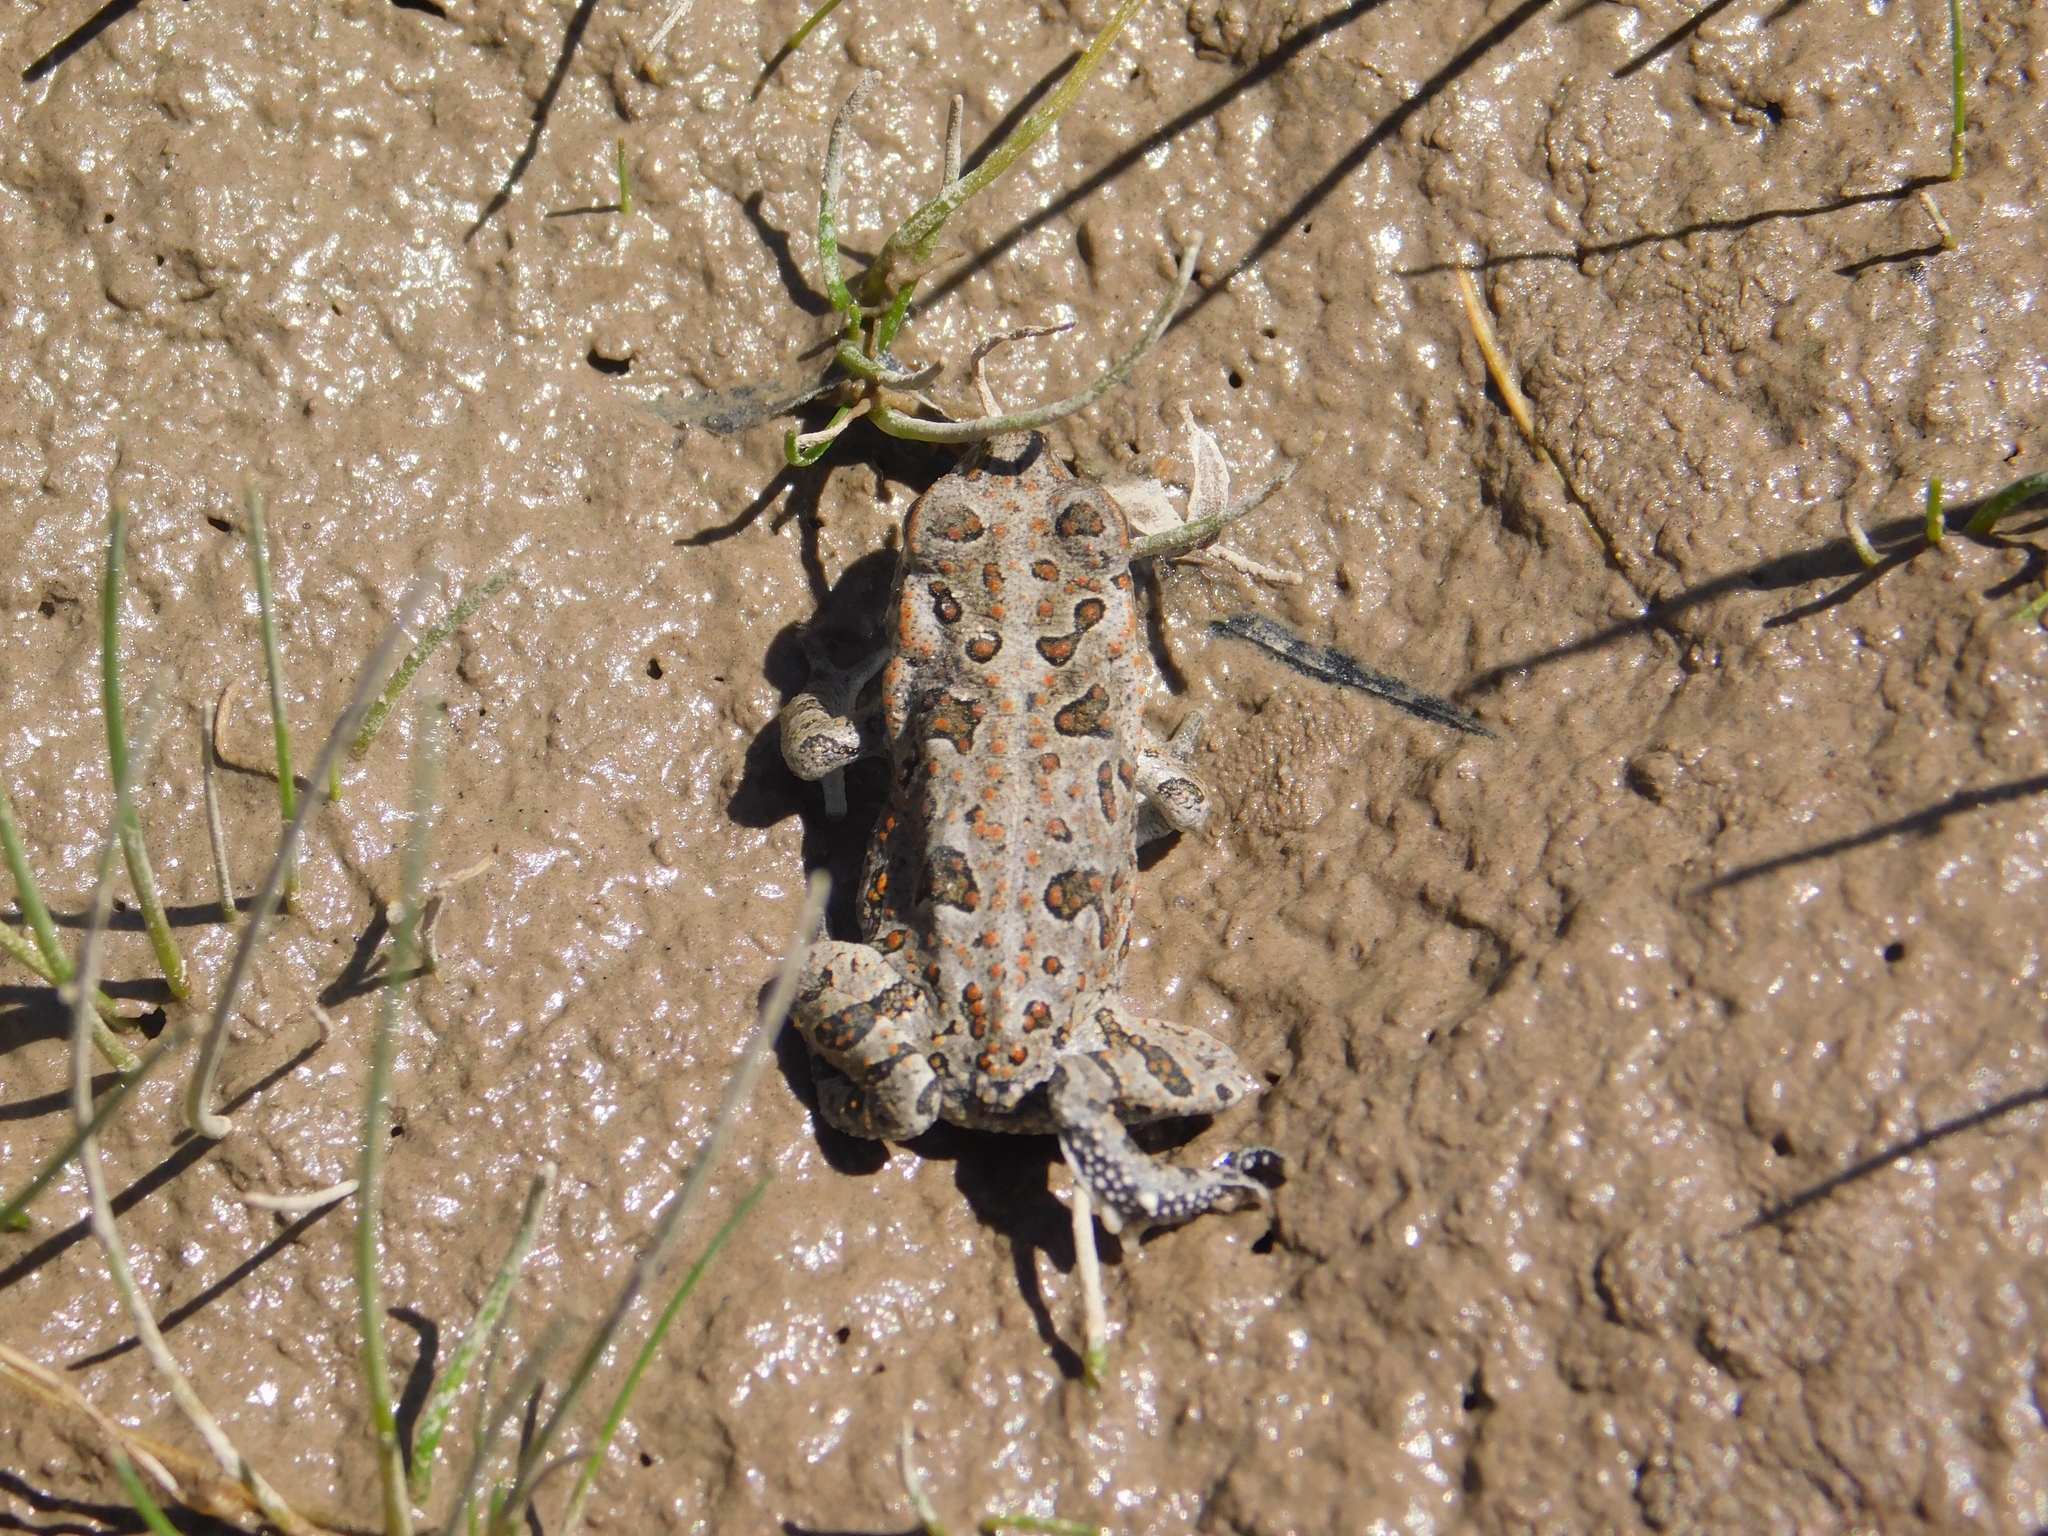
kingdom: Animalia
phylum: Chordata
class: Amphibia
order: Anura
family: Bufonidae
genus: Rhinella
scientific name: Rhinella arenarum
